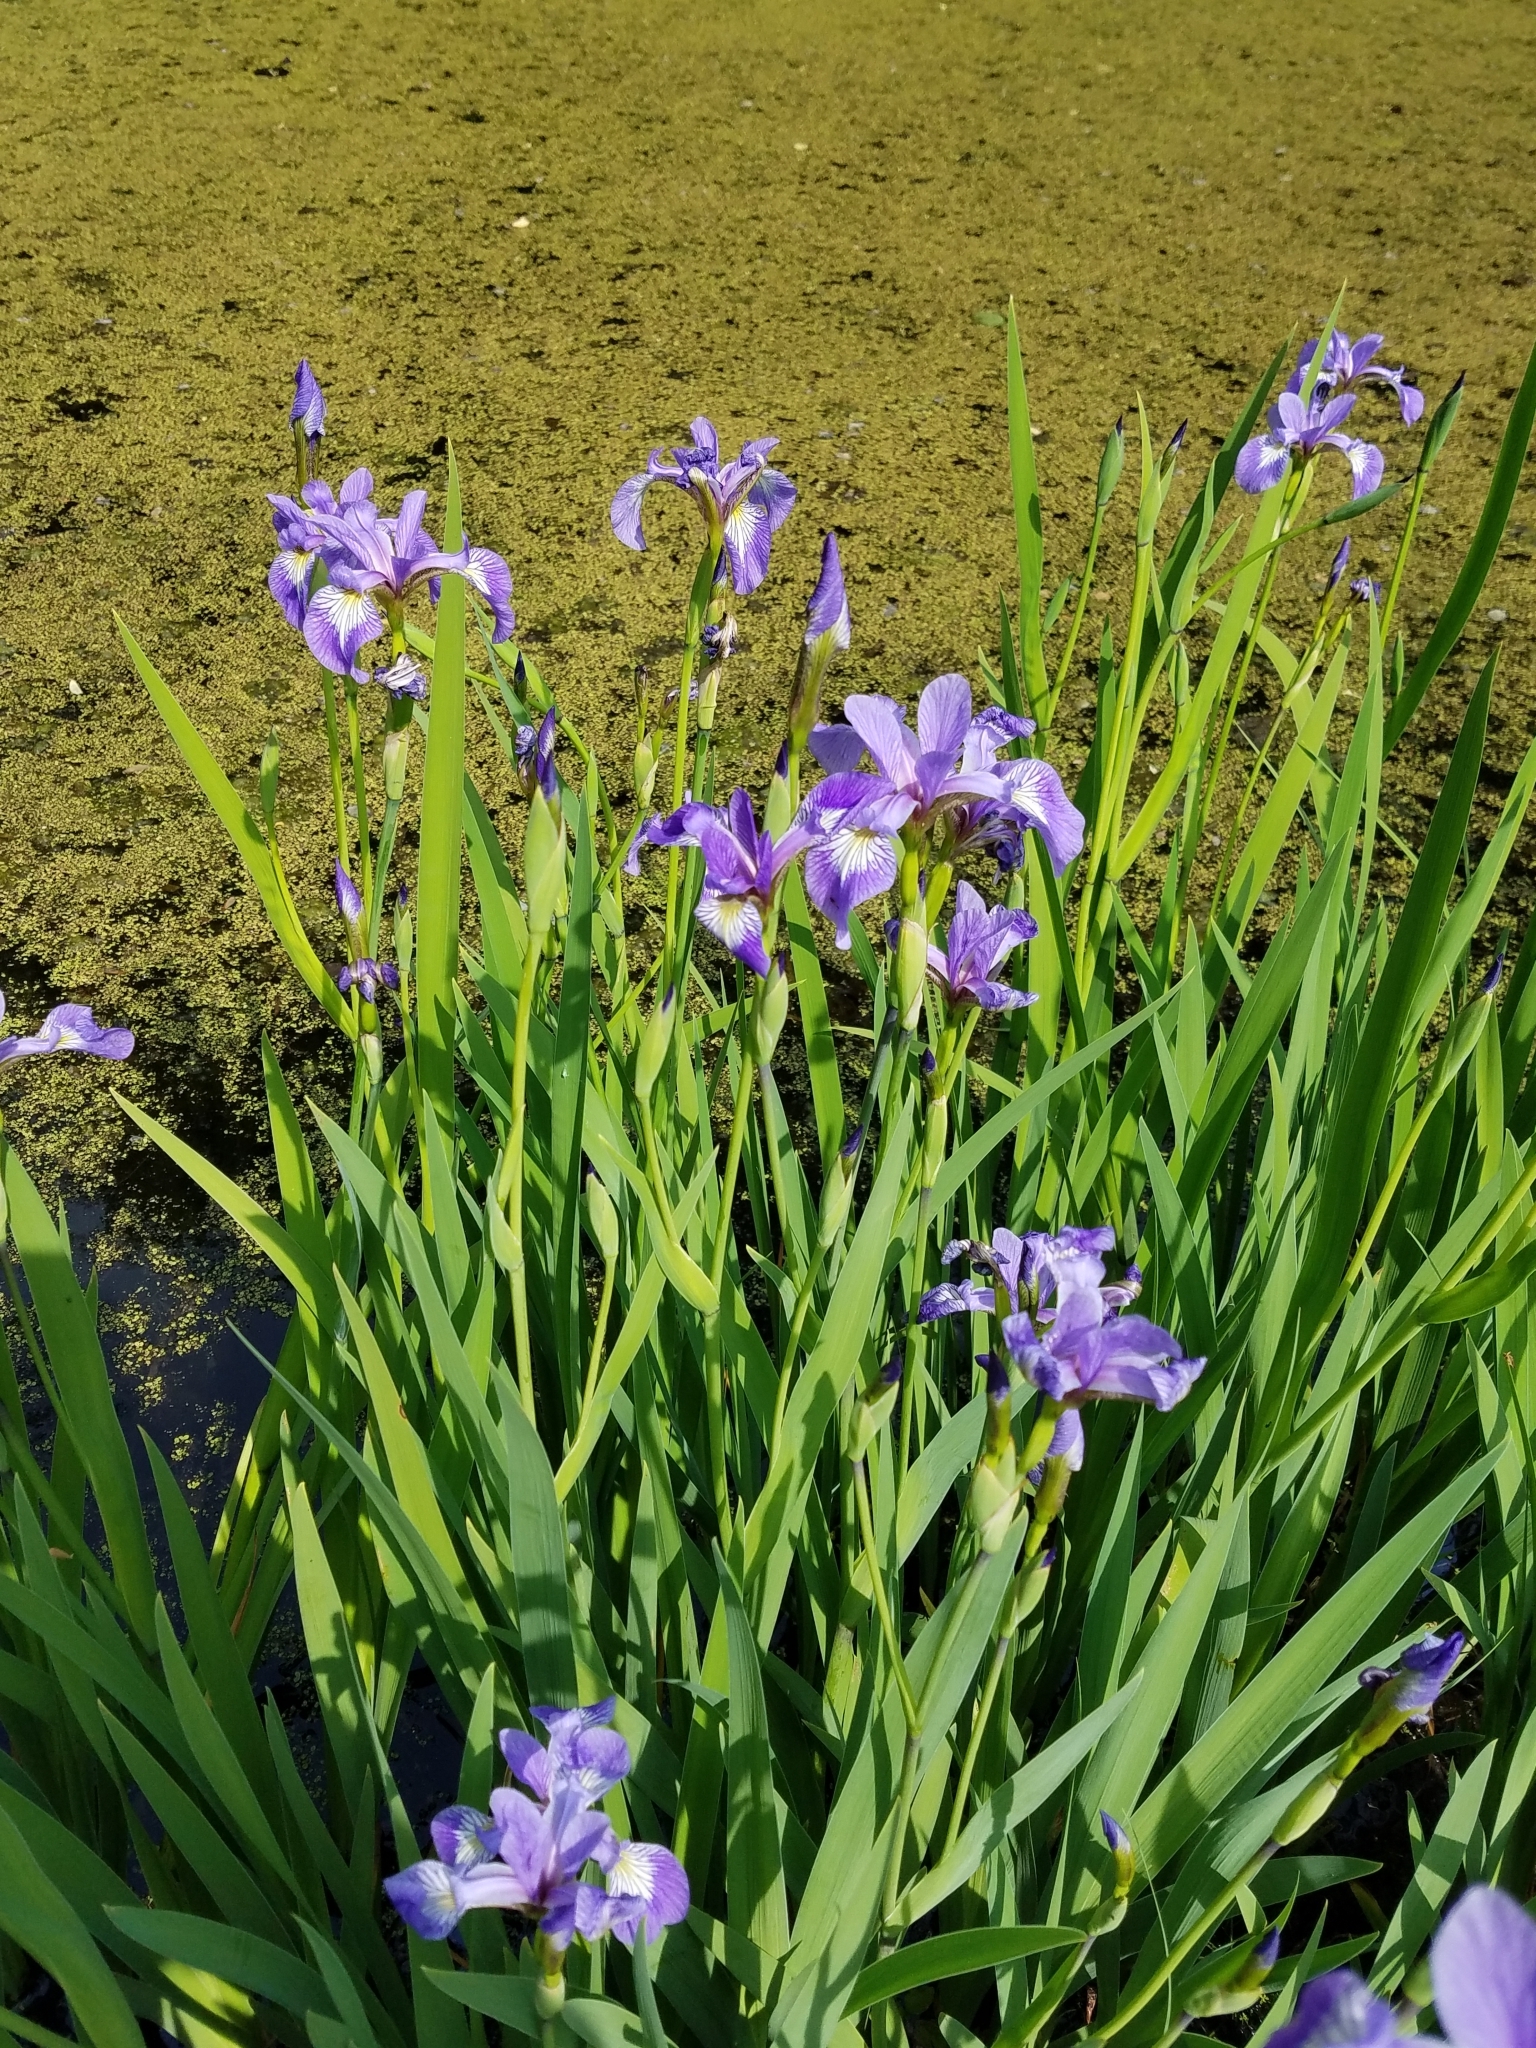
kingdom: Plantae
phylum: Tracheophyta
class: Liliopsida
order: Asparagales
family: Iridaceae
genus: Iris
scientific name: Iris versicolor
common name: Purple iris
